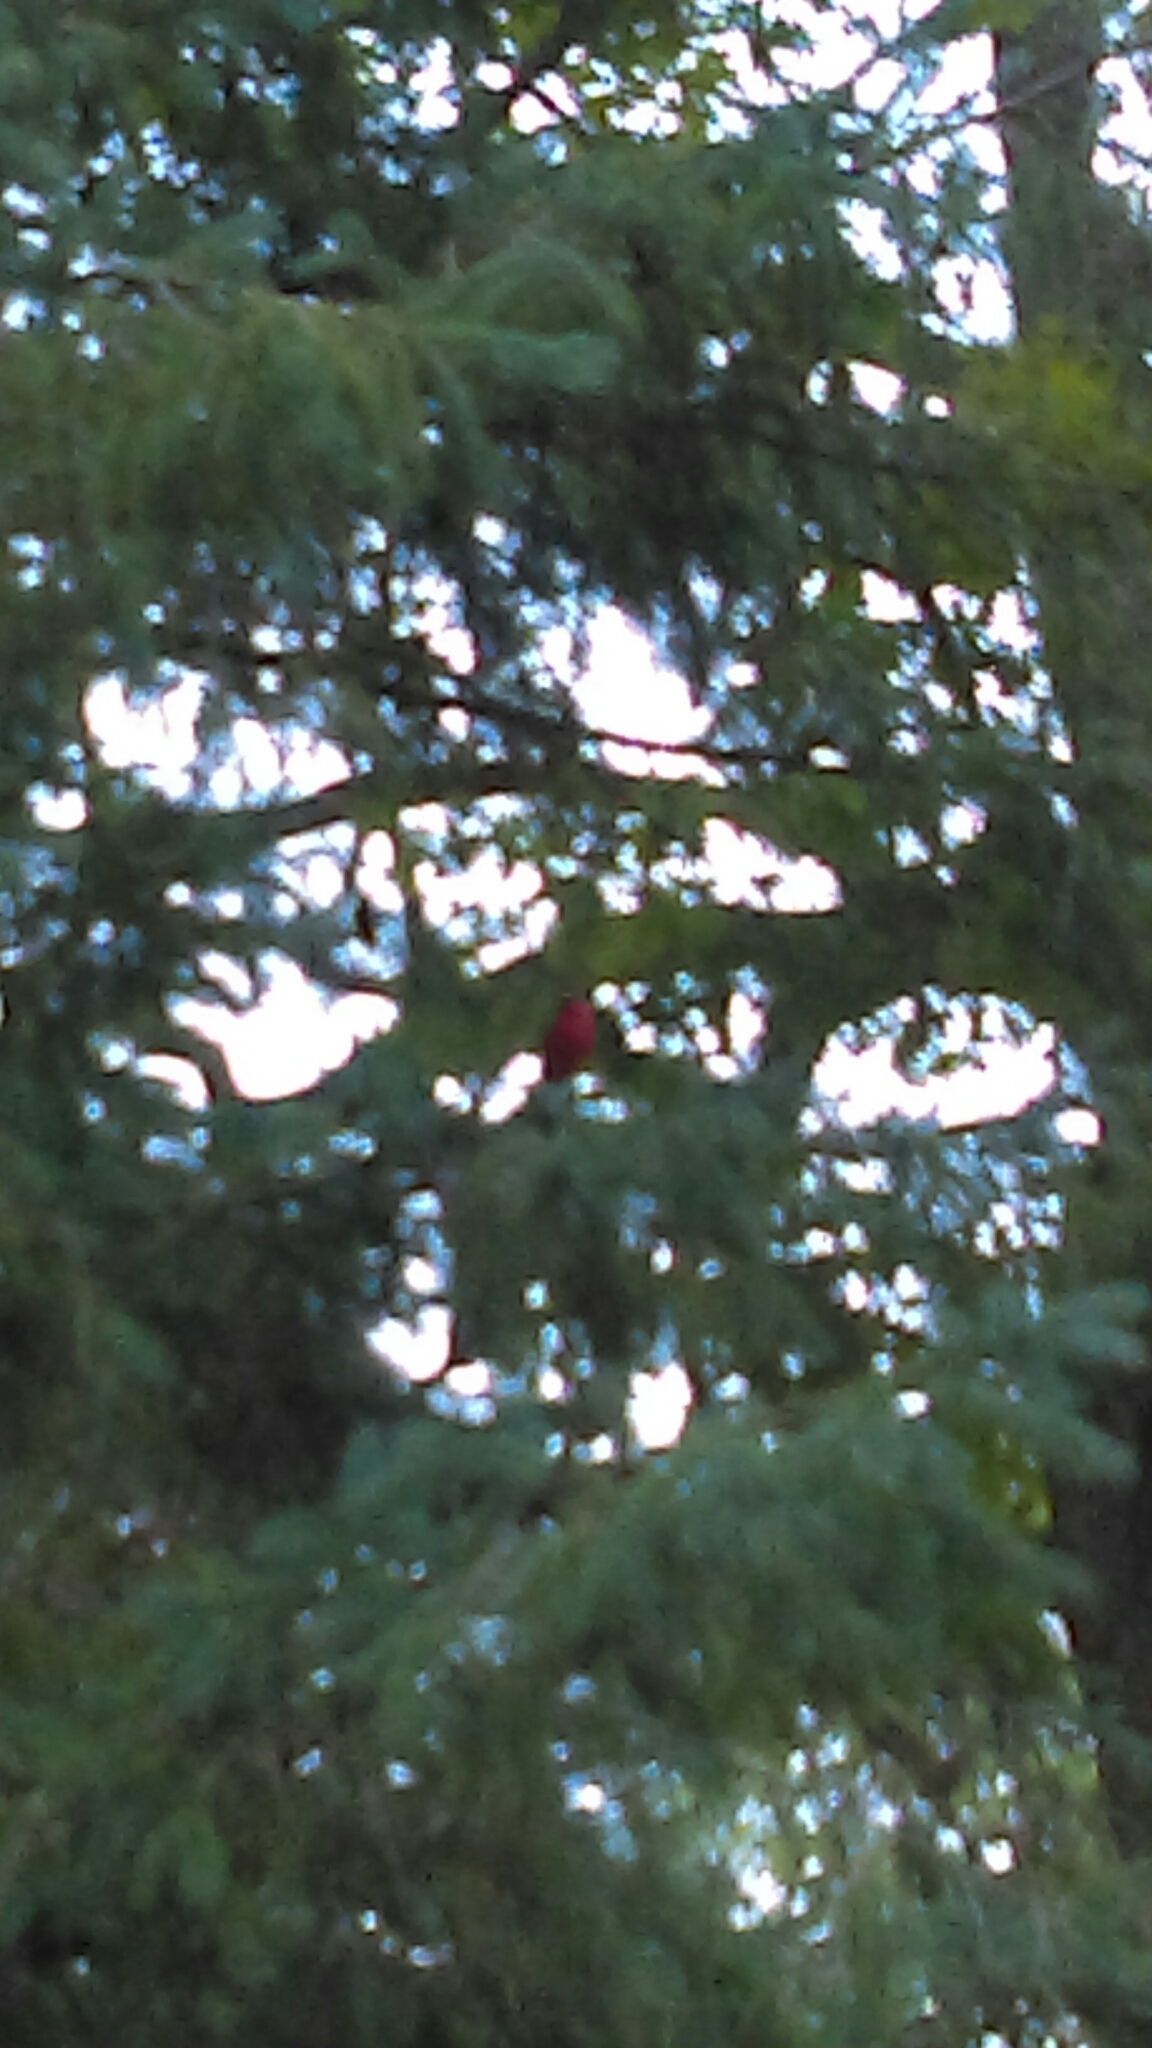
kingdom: Animalia
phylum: Chordata
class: Aves
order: Passeriformes
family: Cardinalidae
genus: Cardinalis
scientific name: Cardinalis cardinalis
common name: Northern cardinal
